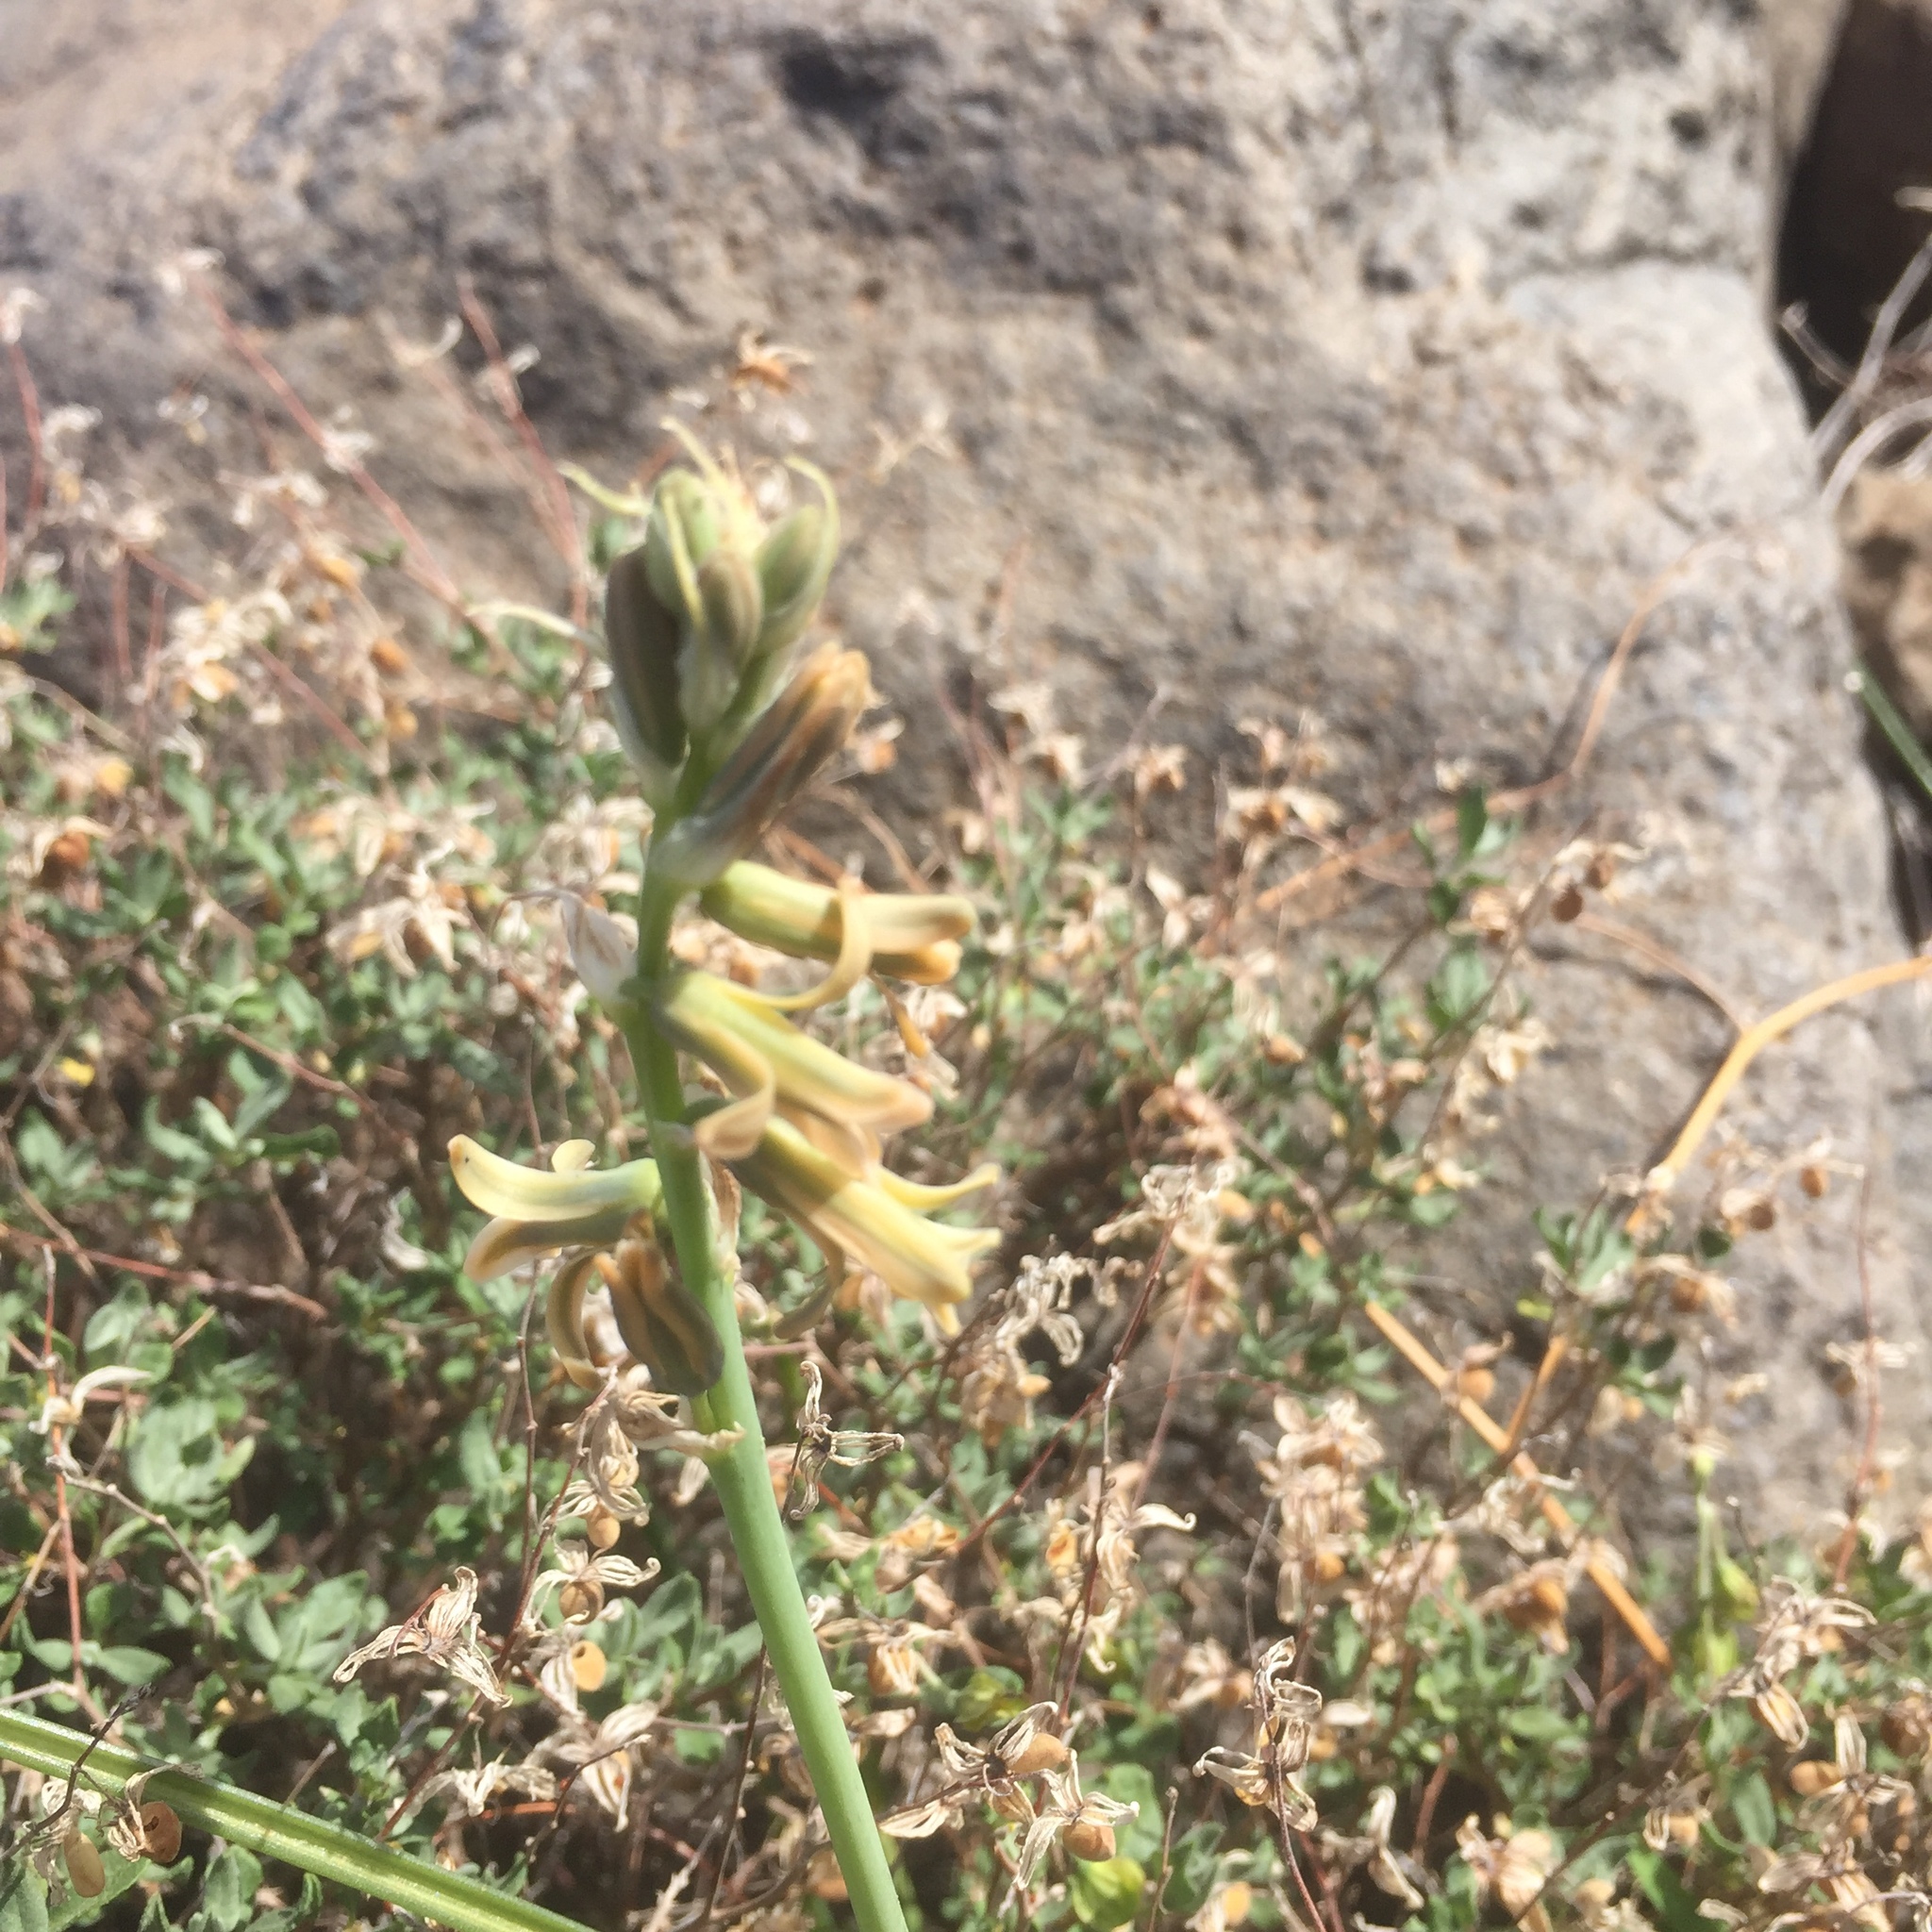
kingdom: Plantae
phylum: Tracheophyta
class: Liliopsida
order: Asparagales
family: Asparagaceae
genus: Dipcadi
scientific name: Dipcadi serotinum
